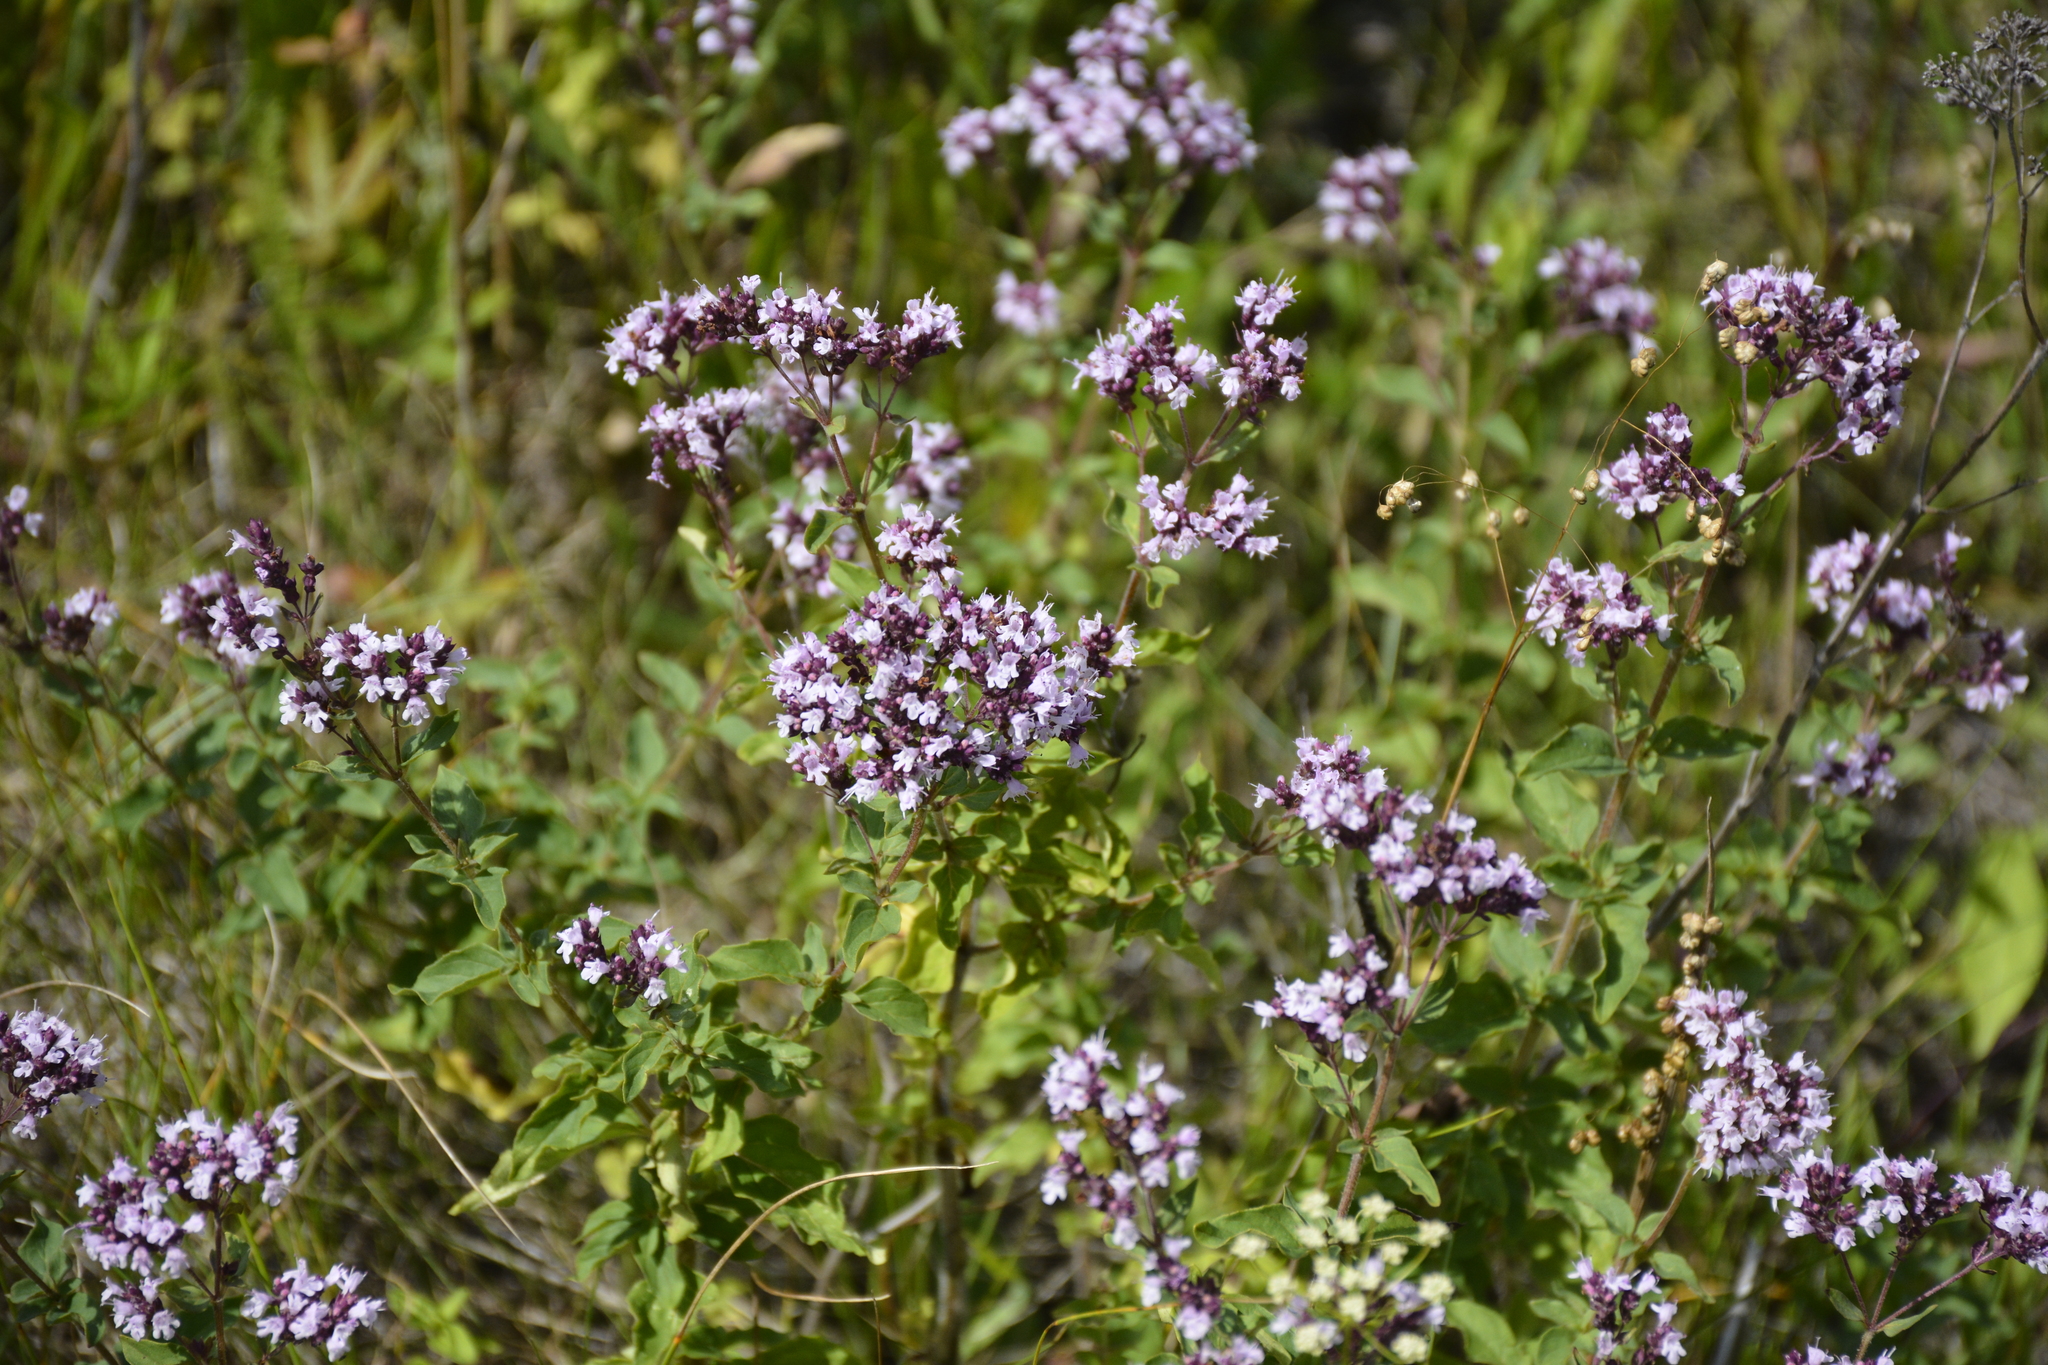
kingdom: Plantae
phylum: Tracheophyta
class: Magnoliopsida
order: Lamiales
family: Lamiaceae
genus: Origanum
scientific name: Origanum vulgare
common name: Wild marjoram
